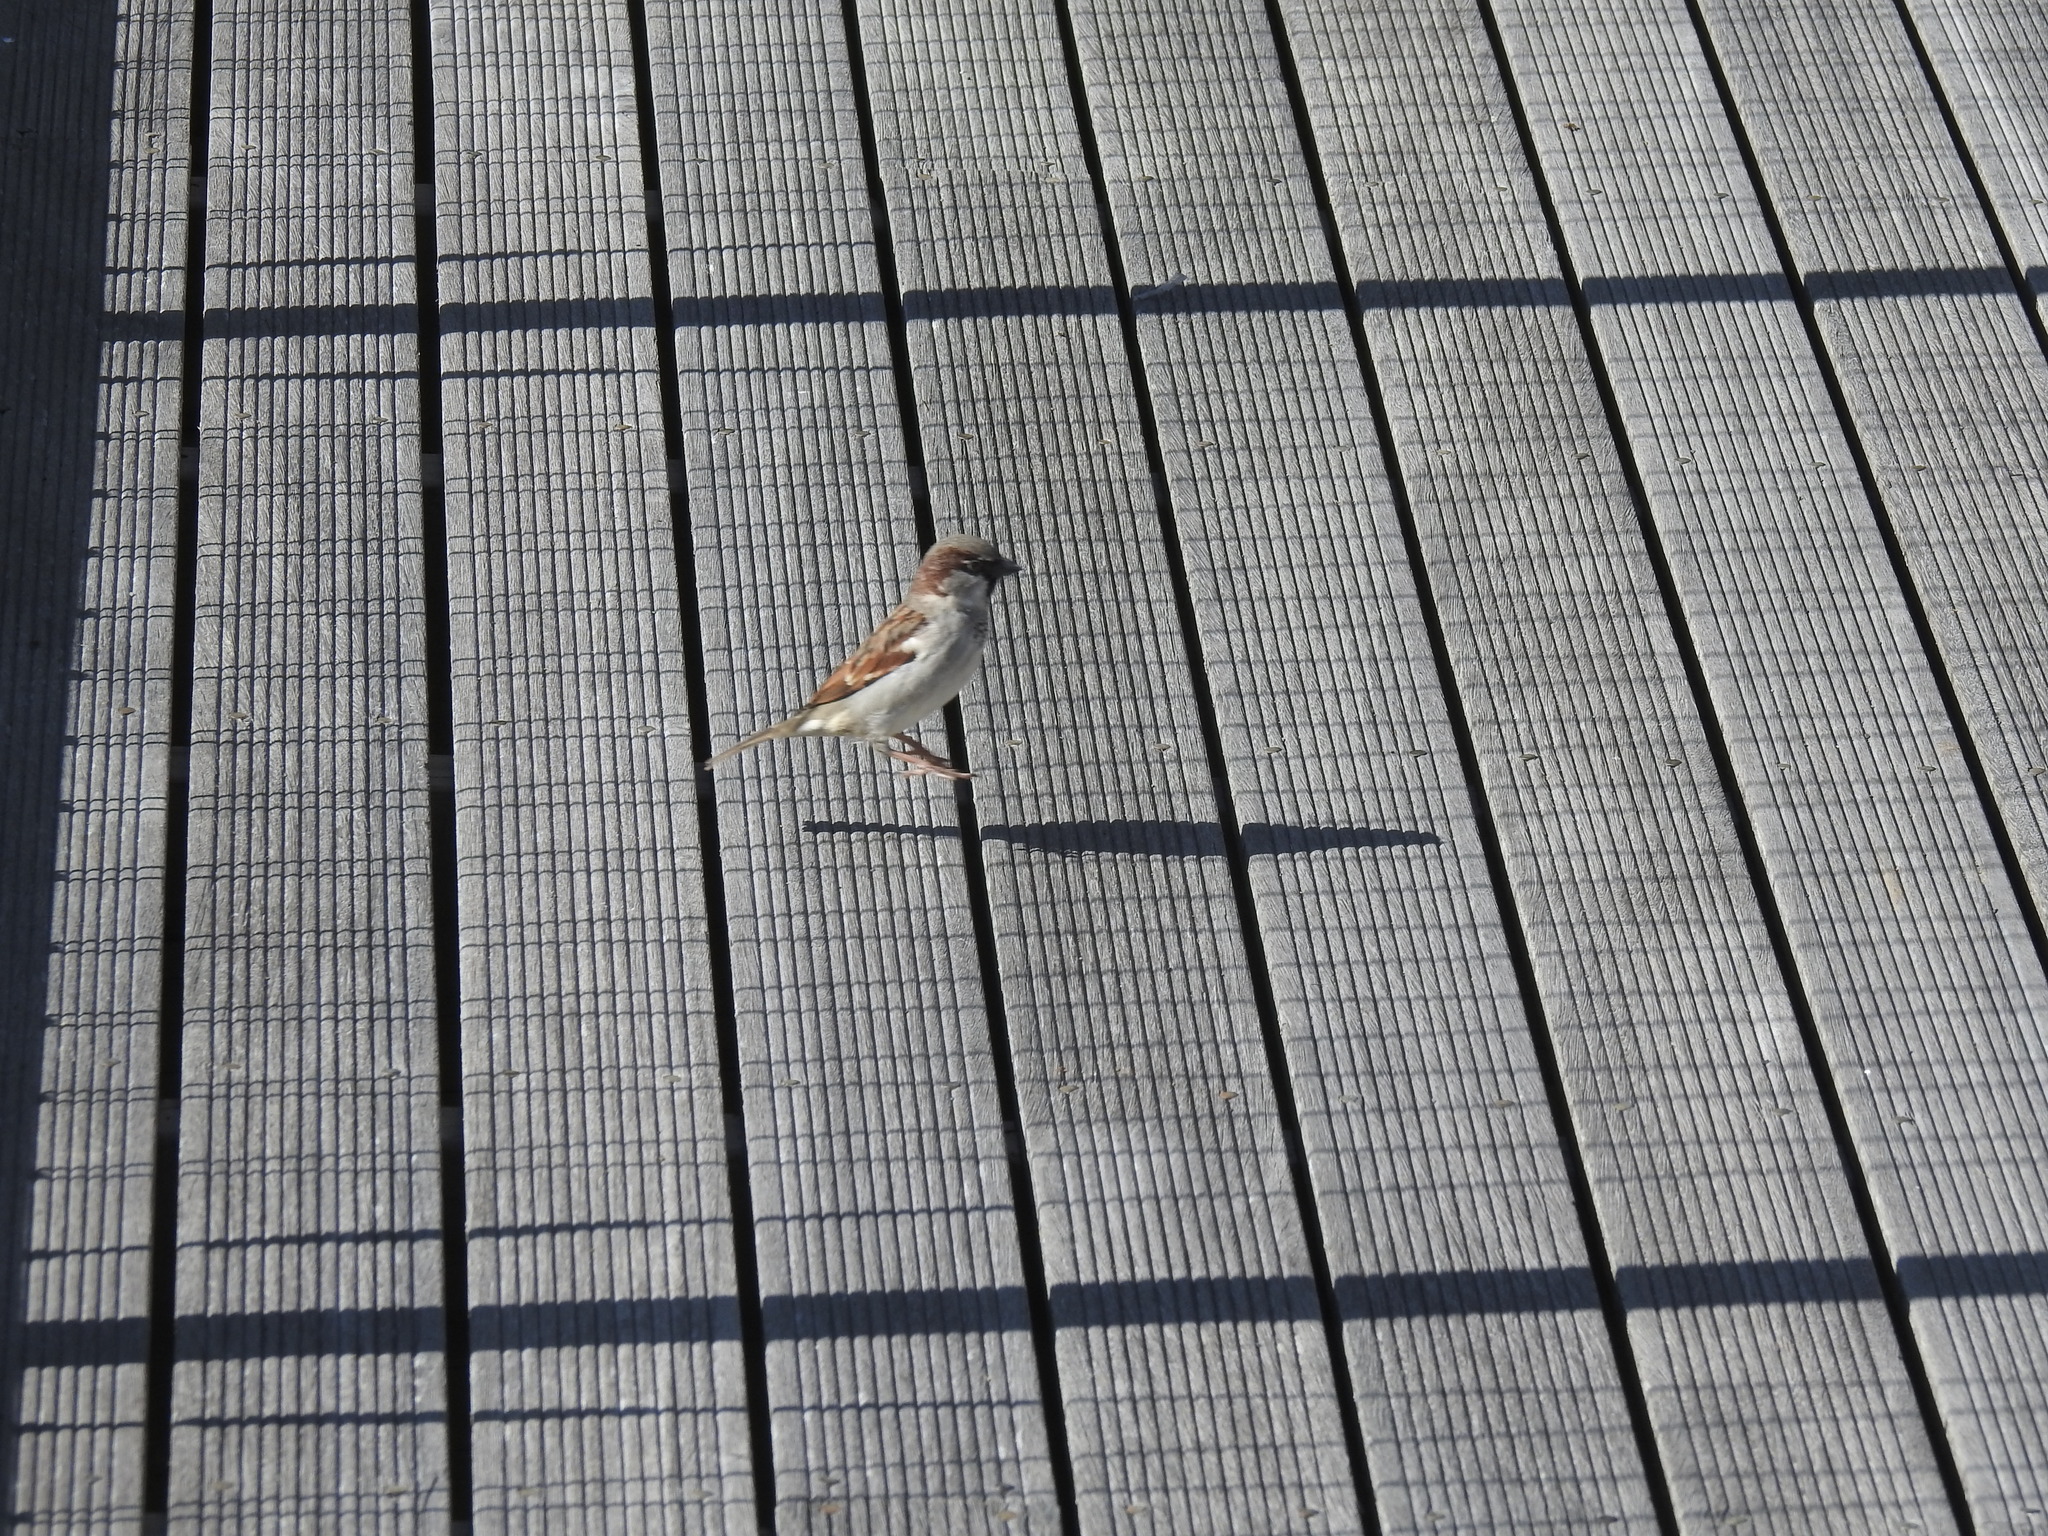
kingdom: Animalia
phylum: Chordata
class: Aves
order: Passeriformes
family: Passeridae
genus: Passer
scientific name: Passer domesticus
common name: House sparrow
